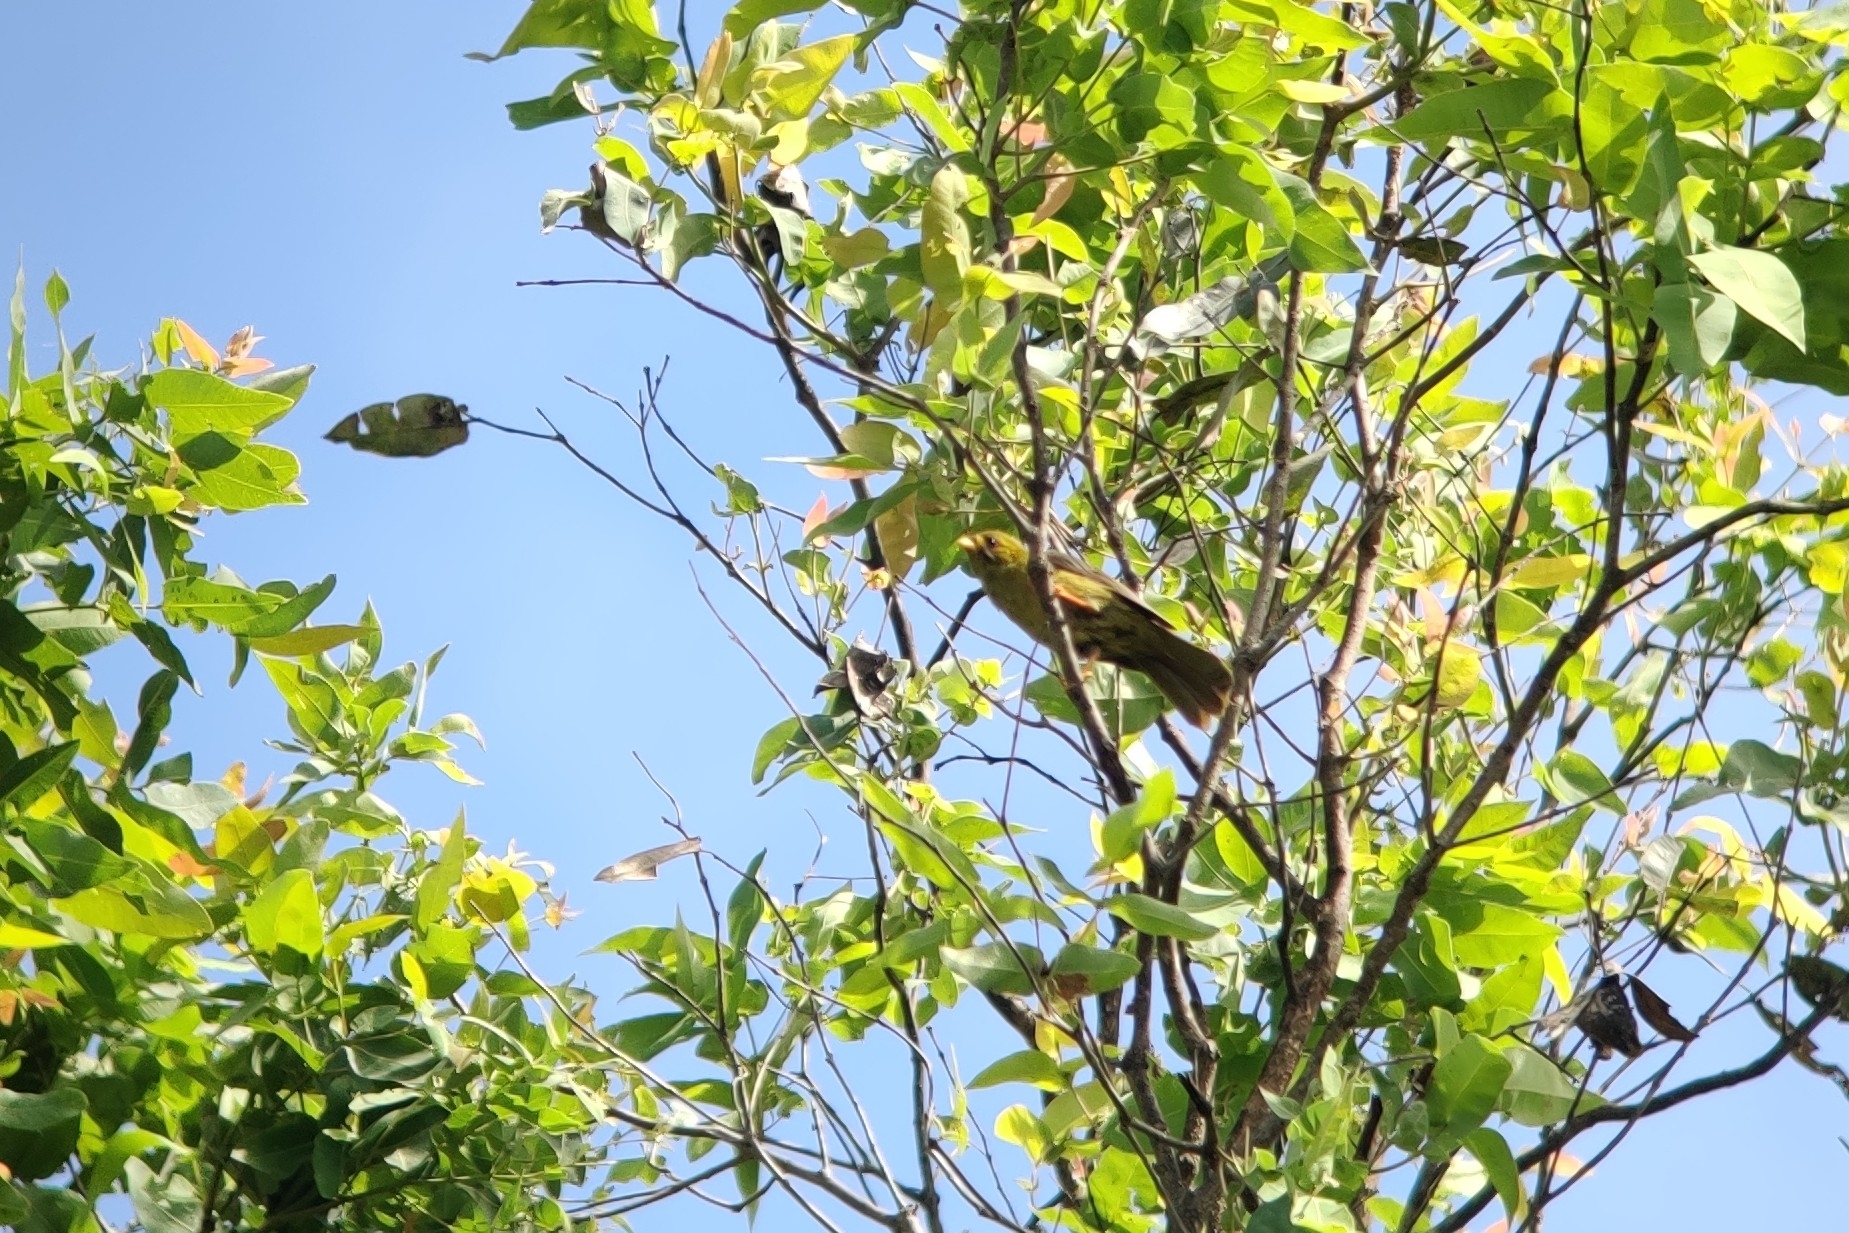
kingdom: Animalia
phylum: Chordata
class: Aves
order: Passeriformes
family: Meliphagidae
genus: Manorina
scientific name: Manorina melanophrys
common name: Bell miner
